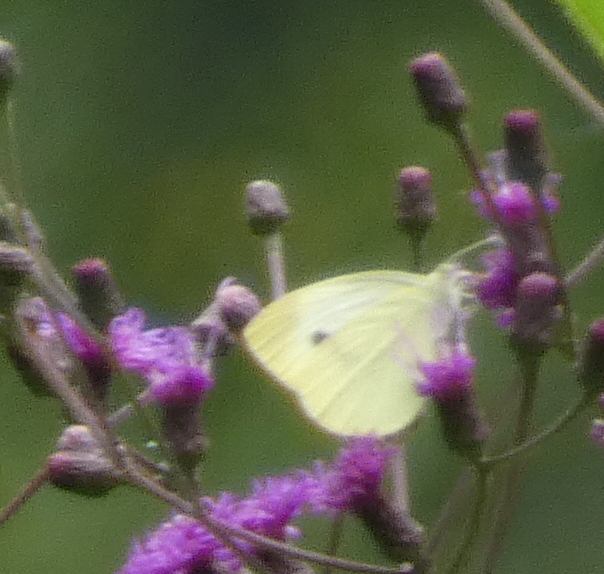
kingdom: Animalia
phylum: Arthropoda
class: Insecta
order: Lepidoptera
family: Pieridae
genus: Pieris
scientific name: Pieris rapae
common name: Small white
